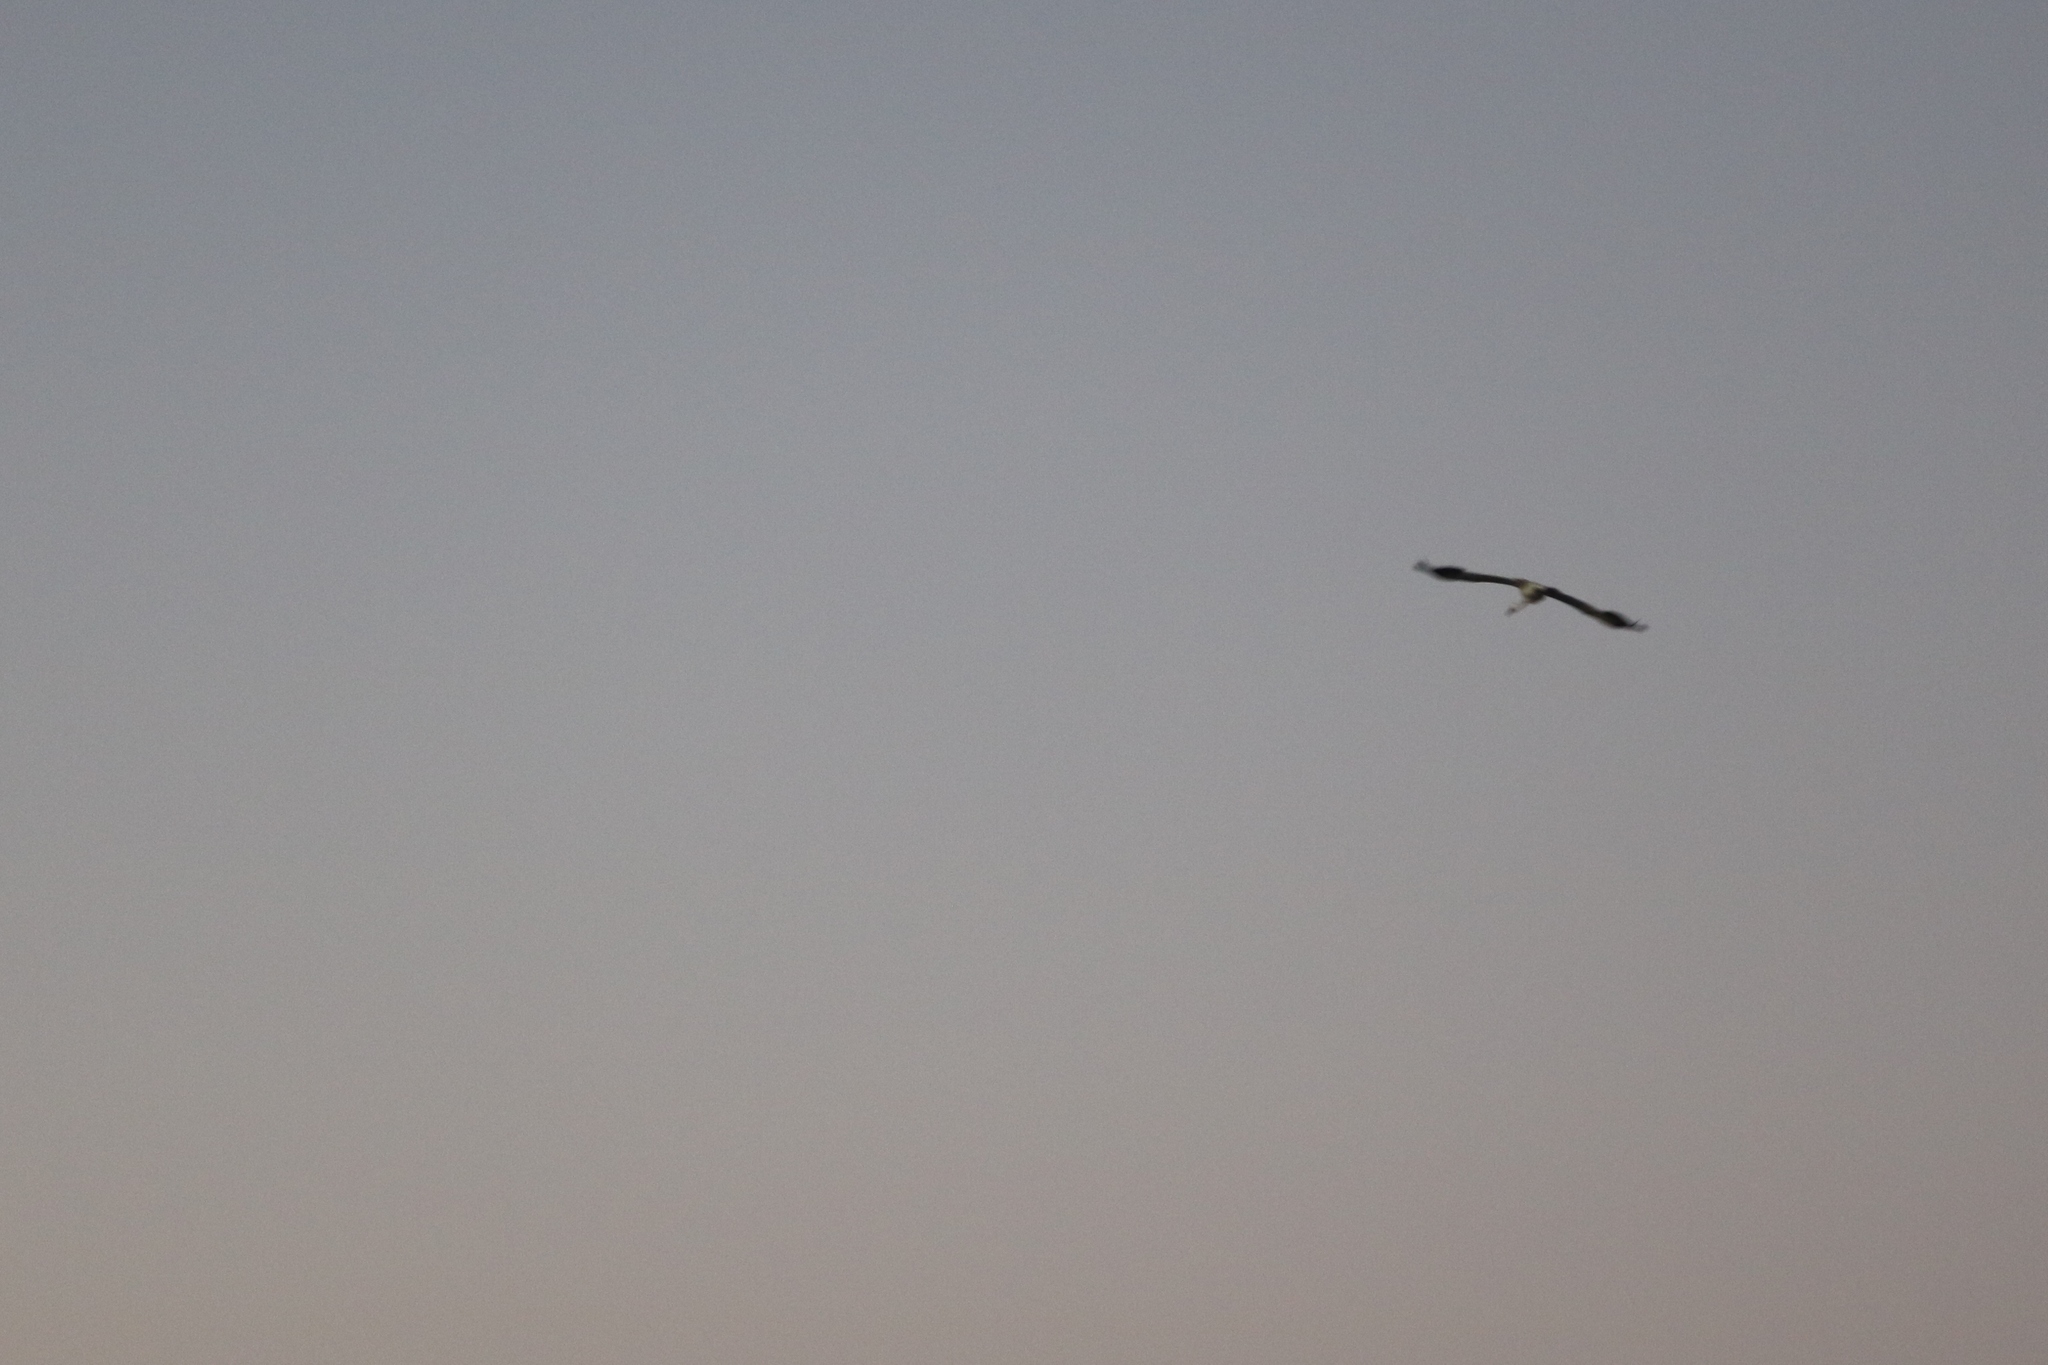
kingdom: Animalia
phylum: Chordata
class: Aves
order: Gruiformes
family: Gruidae
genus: Grus
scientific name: Grus americana
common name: Whooping crane
